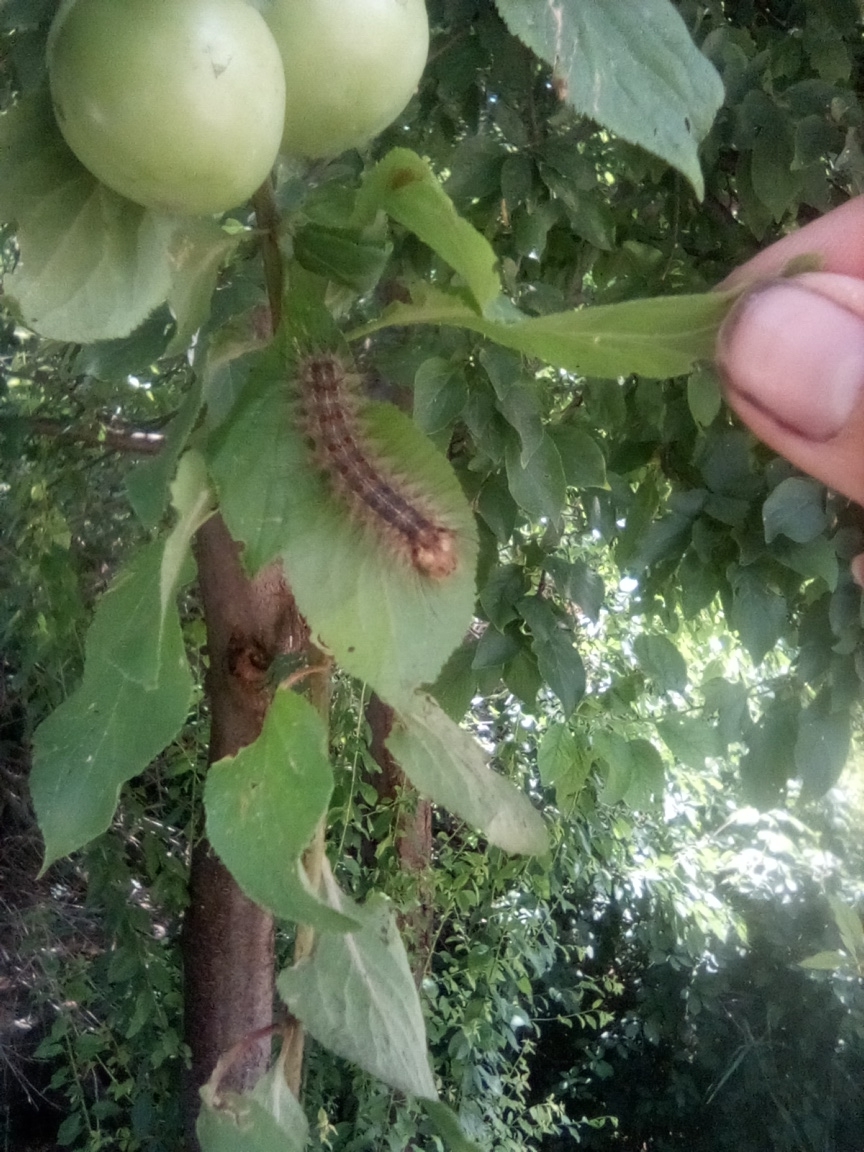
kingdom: Animalia
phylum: Arthropoda
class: Insecta
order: Lepidoptera
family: Erebidae
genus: Lymantria
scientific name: Lymantria dispar
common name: Gypsy moth
